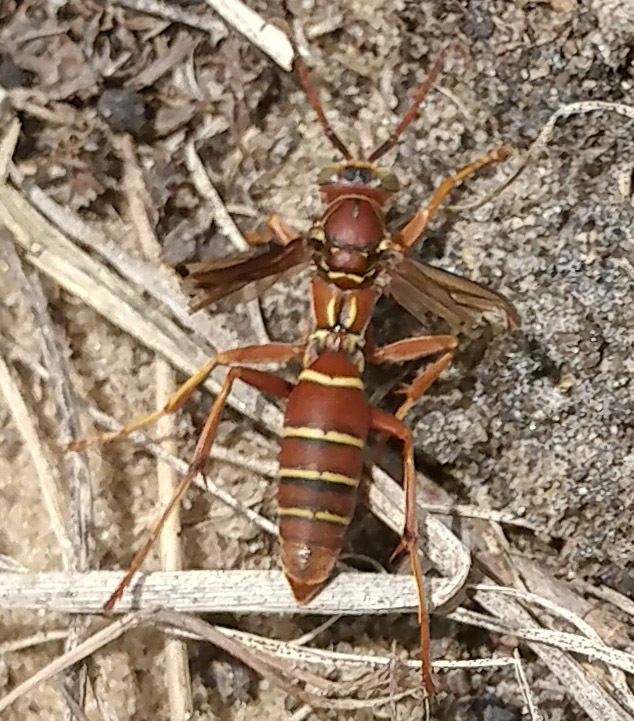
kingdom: Animalia
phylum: Arthropoda
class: Insecta
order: Hymenoptera
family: Eumenidae
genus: Polistes
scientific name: Polistes bellicosus
